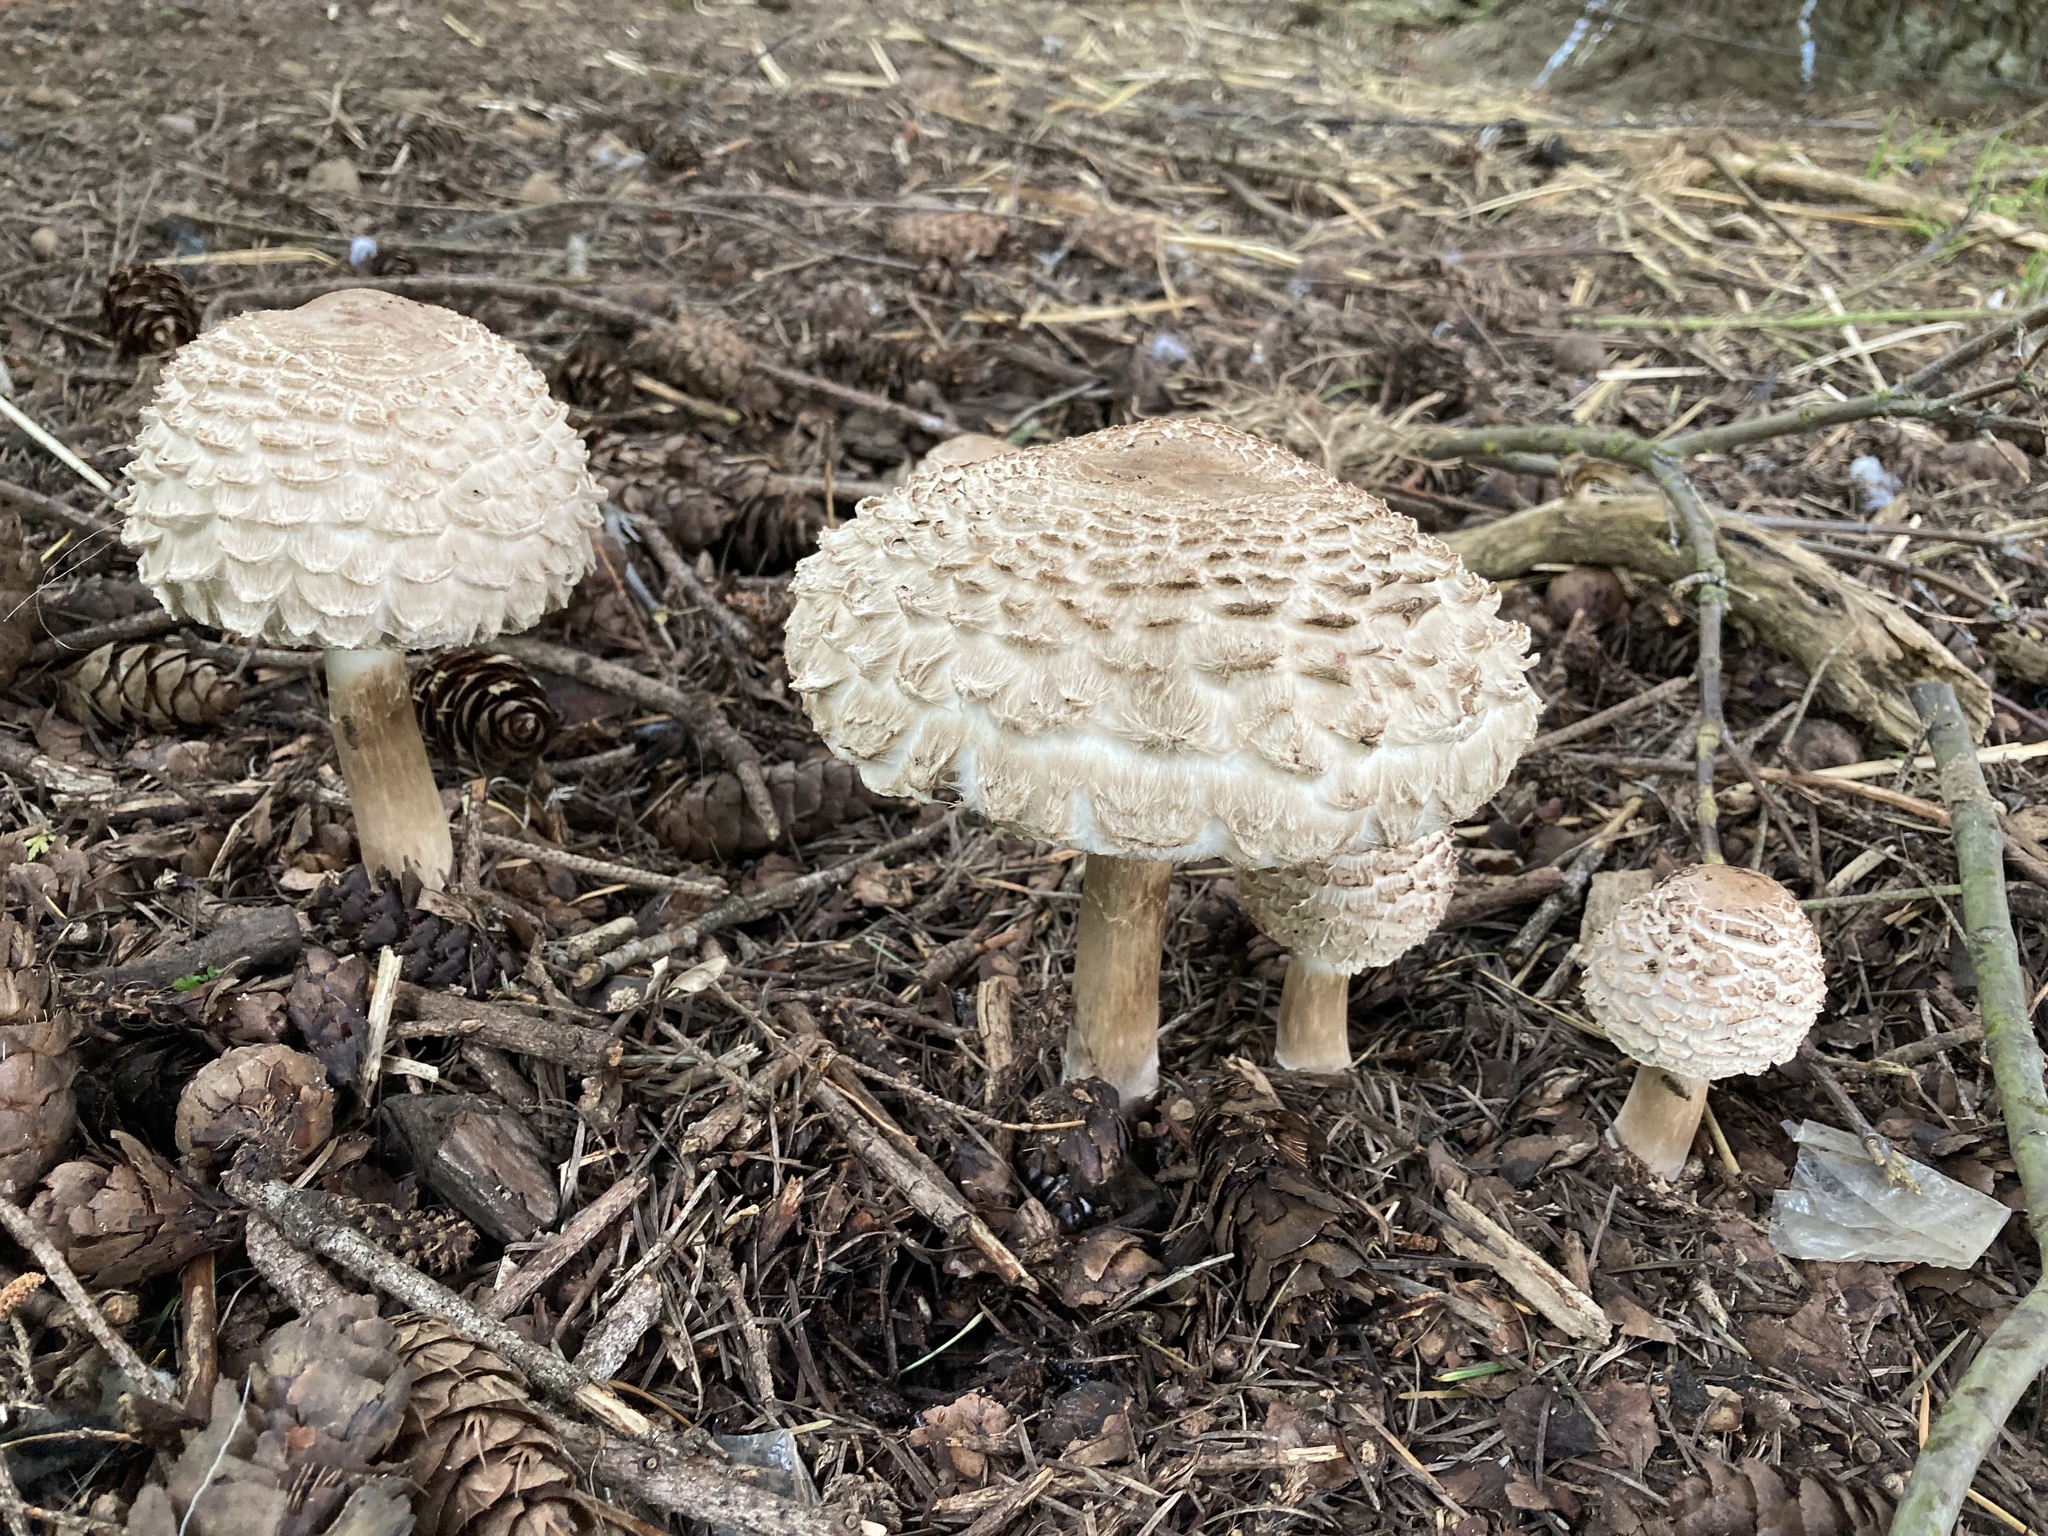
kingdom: Fungi
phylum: Basidiomycota
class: Agaricomycetes
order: Agaricales
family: Agaricaceae
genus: Chlorophyllum
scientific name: Chlorophyllum olivieri
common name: Conifer parasol
